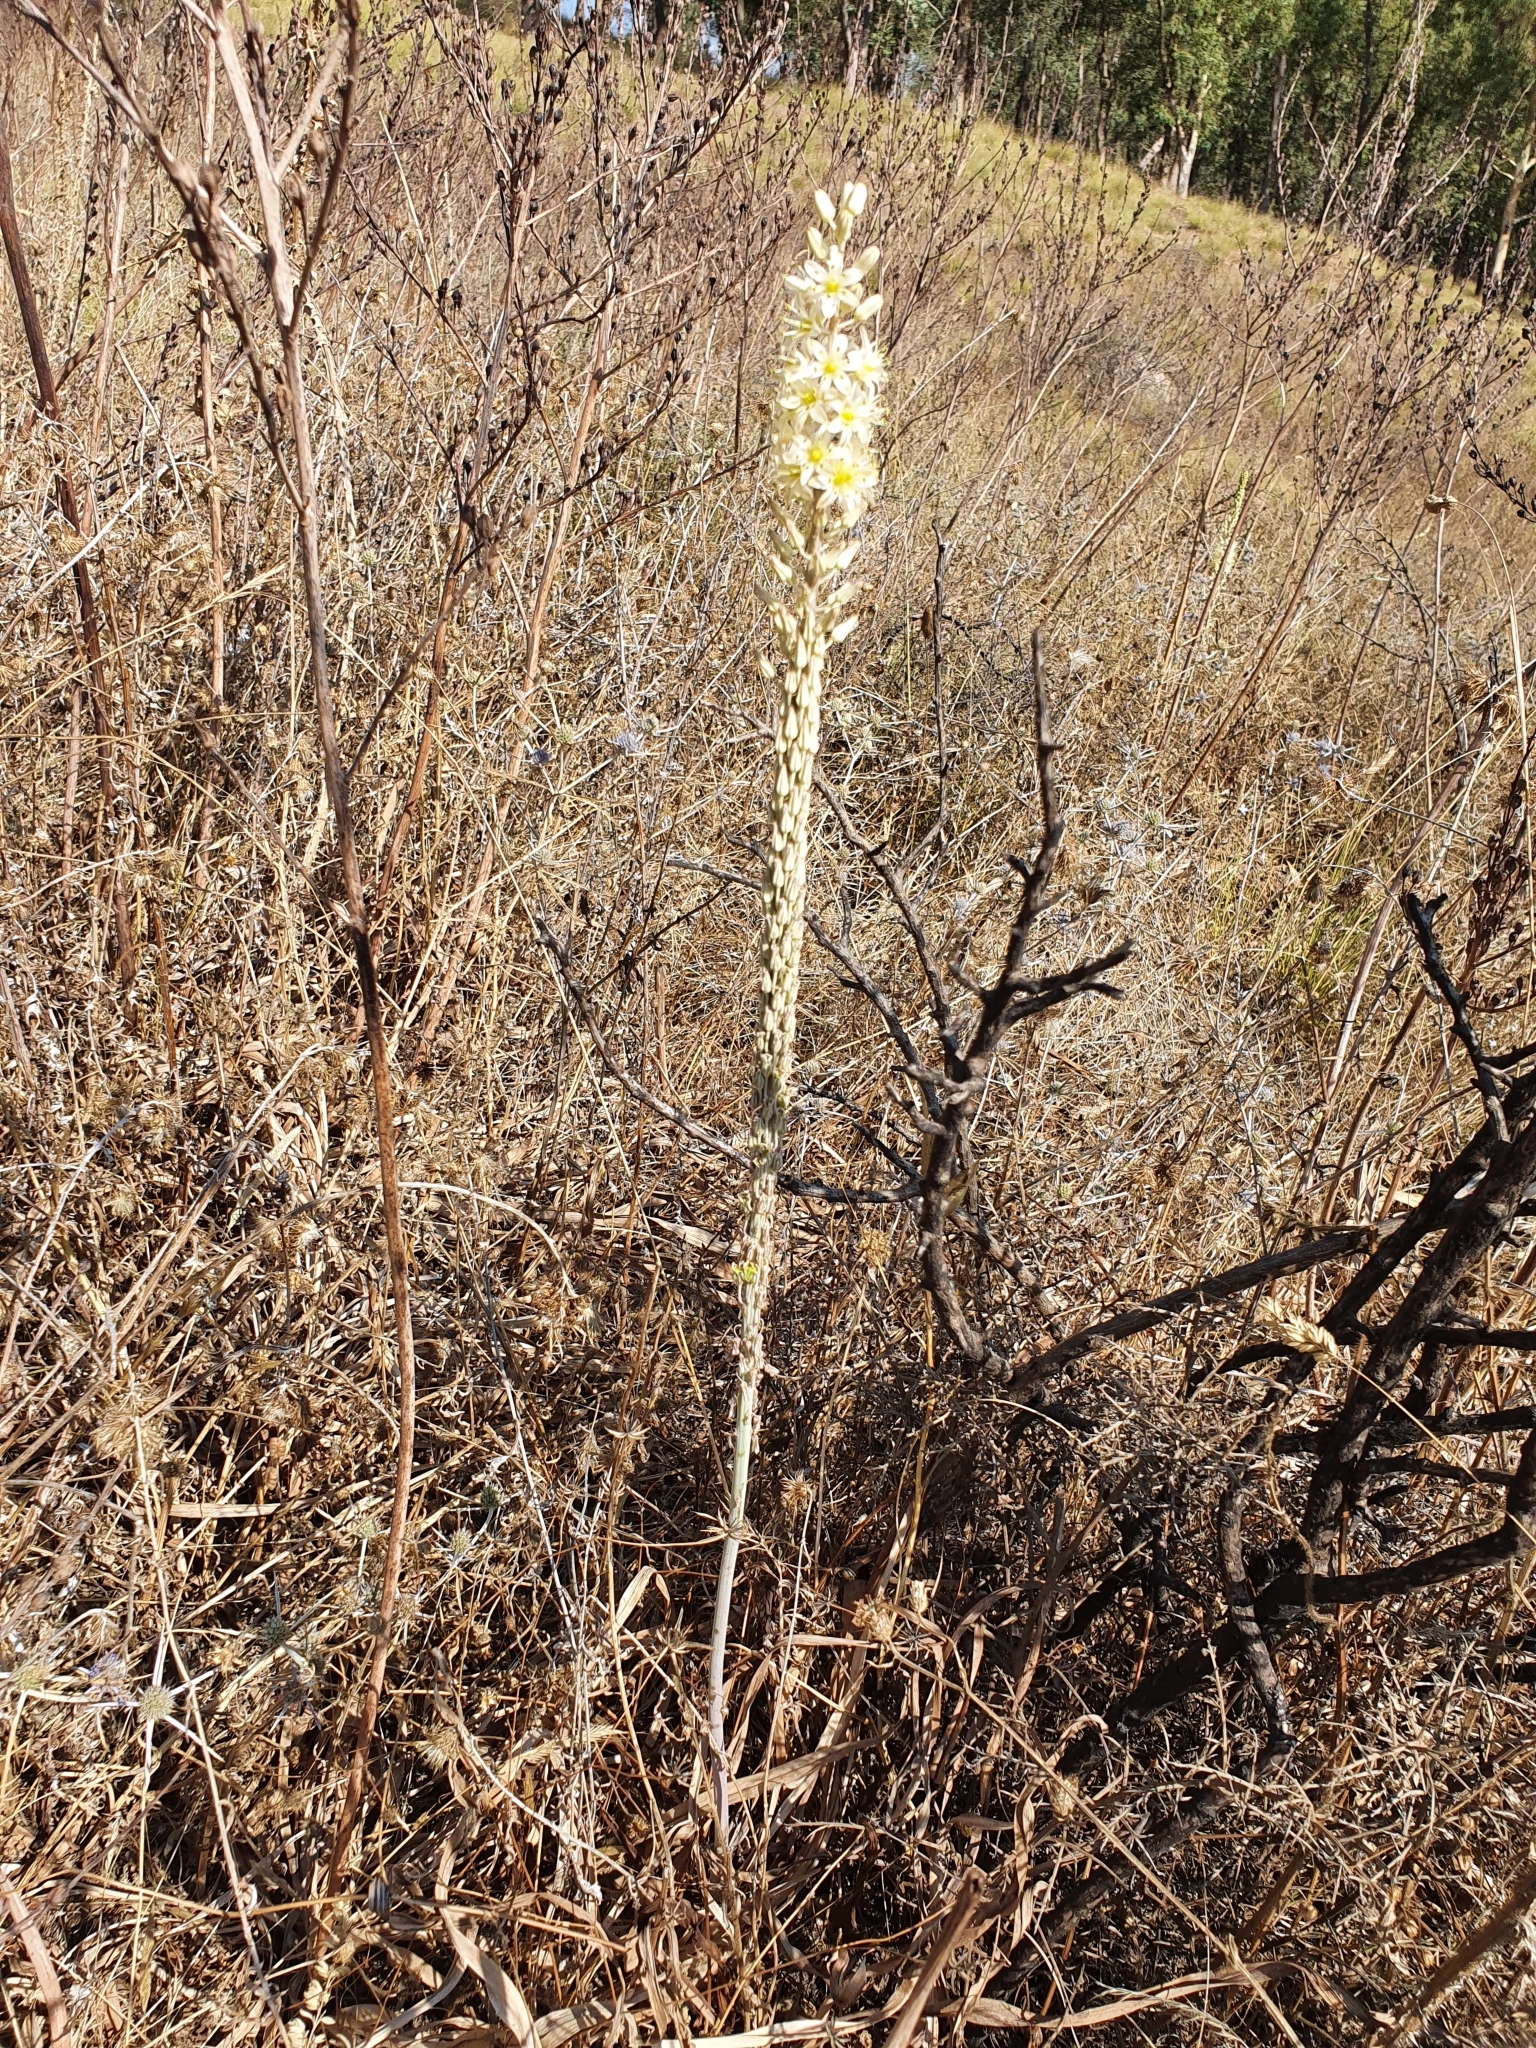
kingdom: Plantae
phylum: Tracheophyta
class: Liliopsida
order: Asparagales
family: Asparagaceae
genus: Drimia
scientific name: Drimia anthericoides
